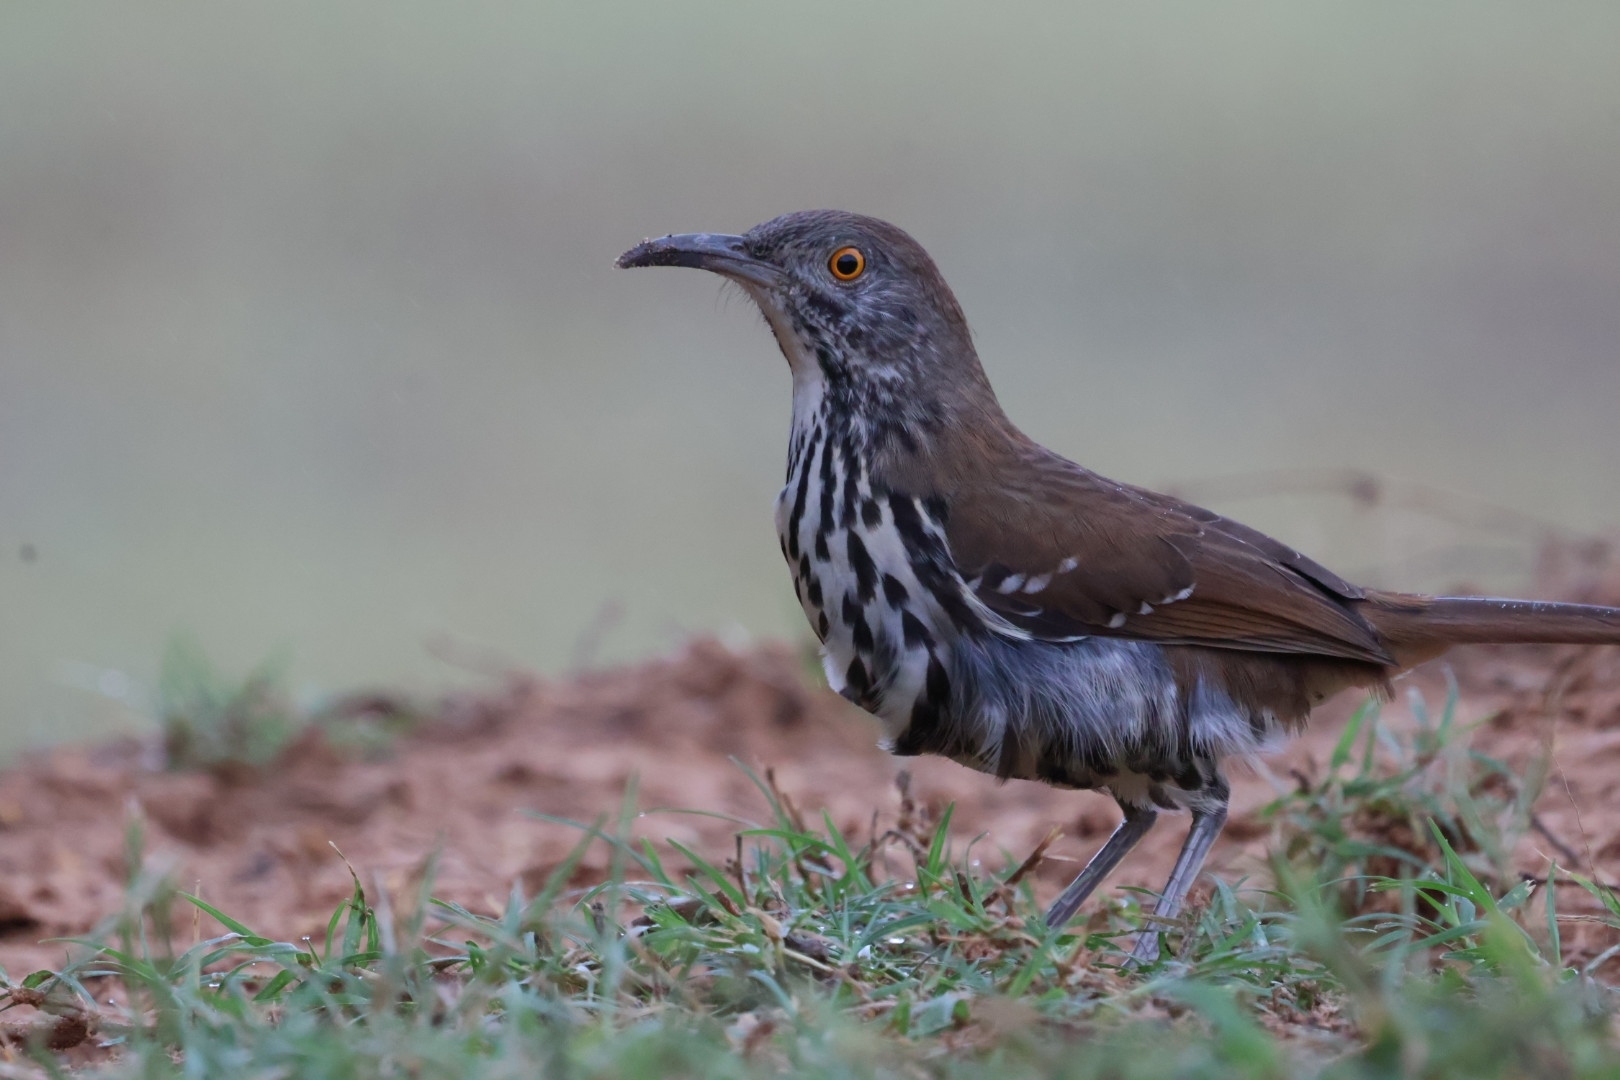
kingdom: Animalia
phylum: Chordata
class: Aves
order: Passeriformes
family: Mimidae
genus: Toxostoma
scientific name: Toxostoma longirostre
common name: Long-billed thrasher
